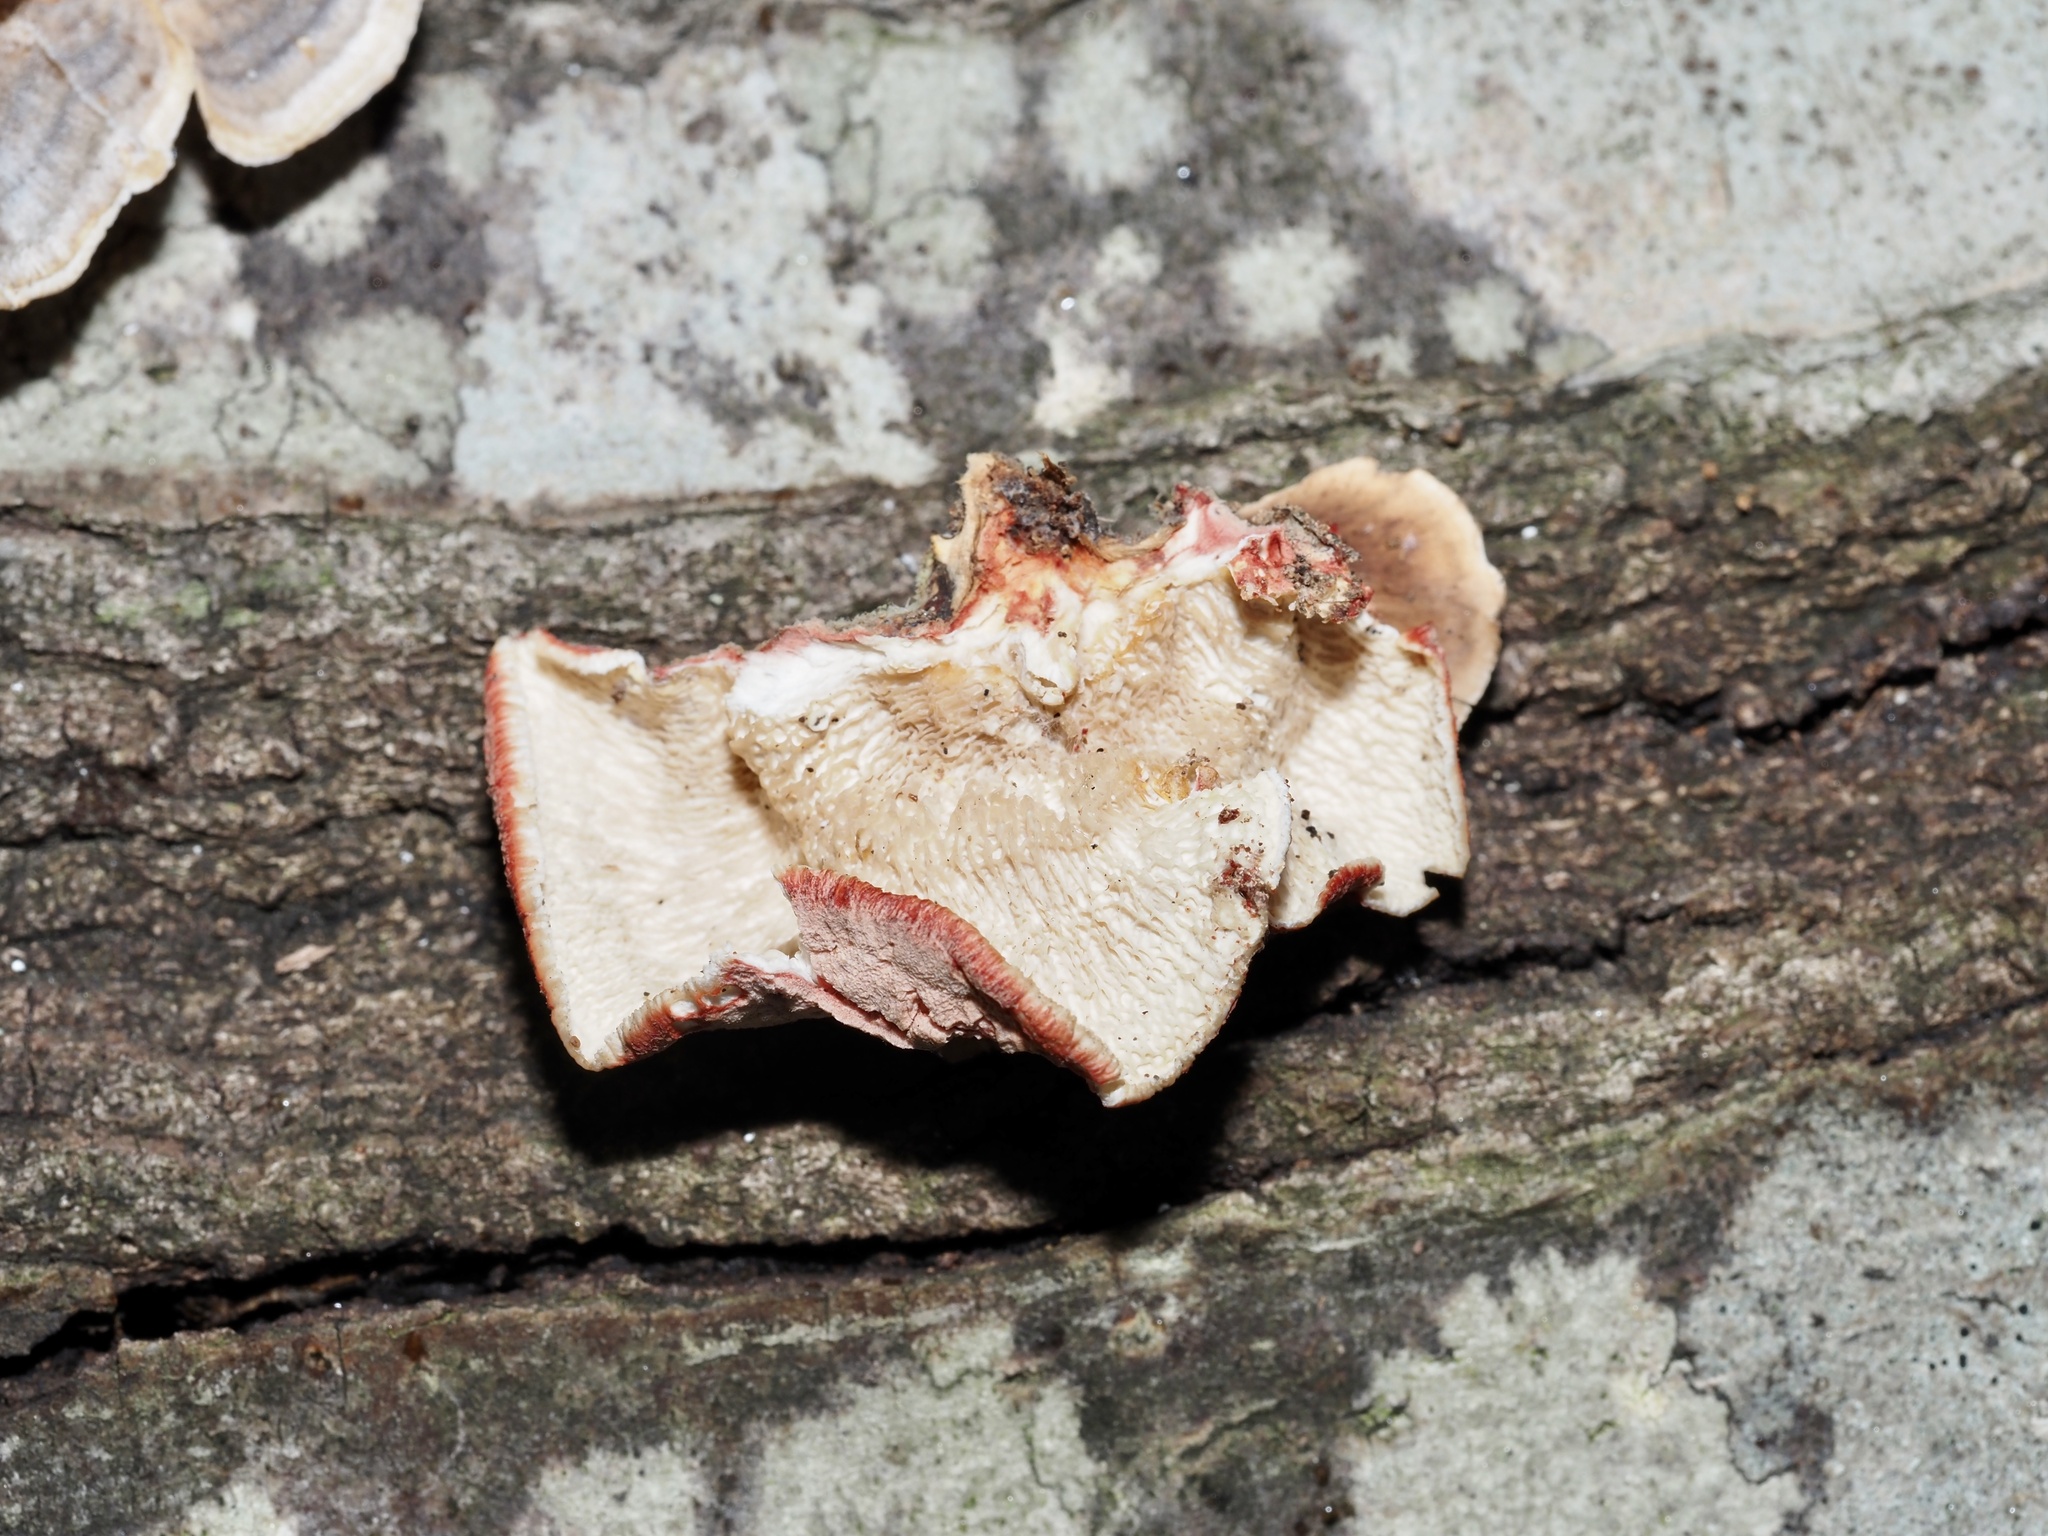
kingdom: Fungi
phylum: Basidiomycota
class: Agaricomycetes
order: Polyporales
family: Irpicaceae
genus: Byssomerulius
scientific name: Byssomerulius incarnatus
